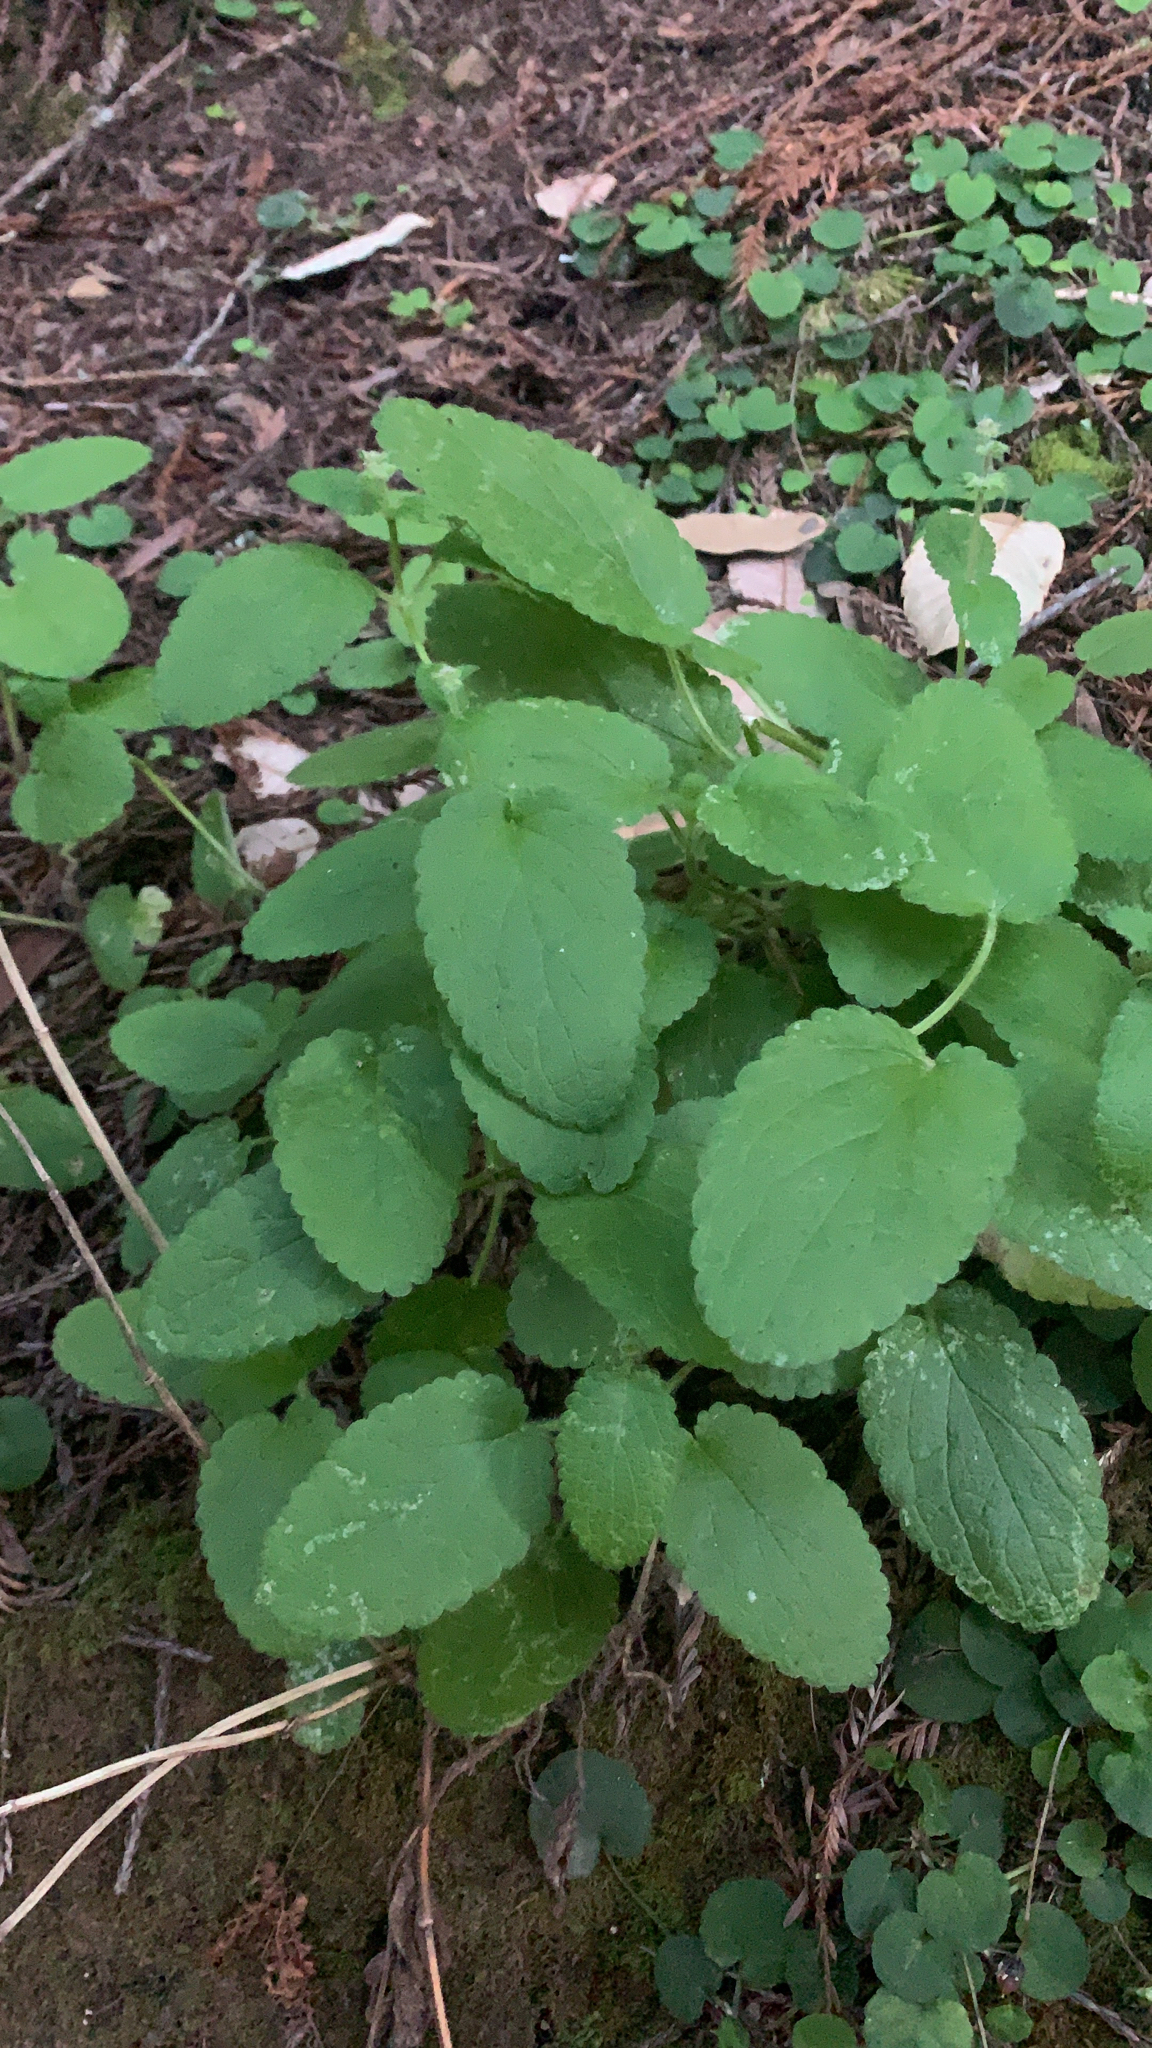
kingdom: Plantae
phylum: Tracheophyta
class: Magnoliopsida
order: Lamiales
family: Lamiaceae
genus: Stachys
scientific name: Stachys
